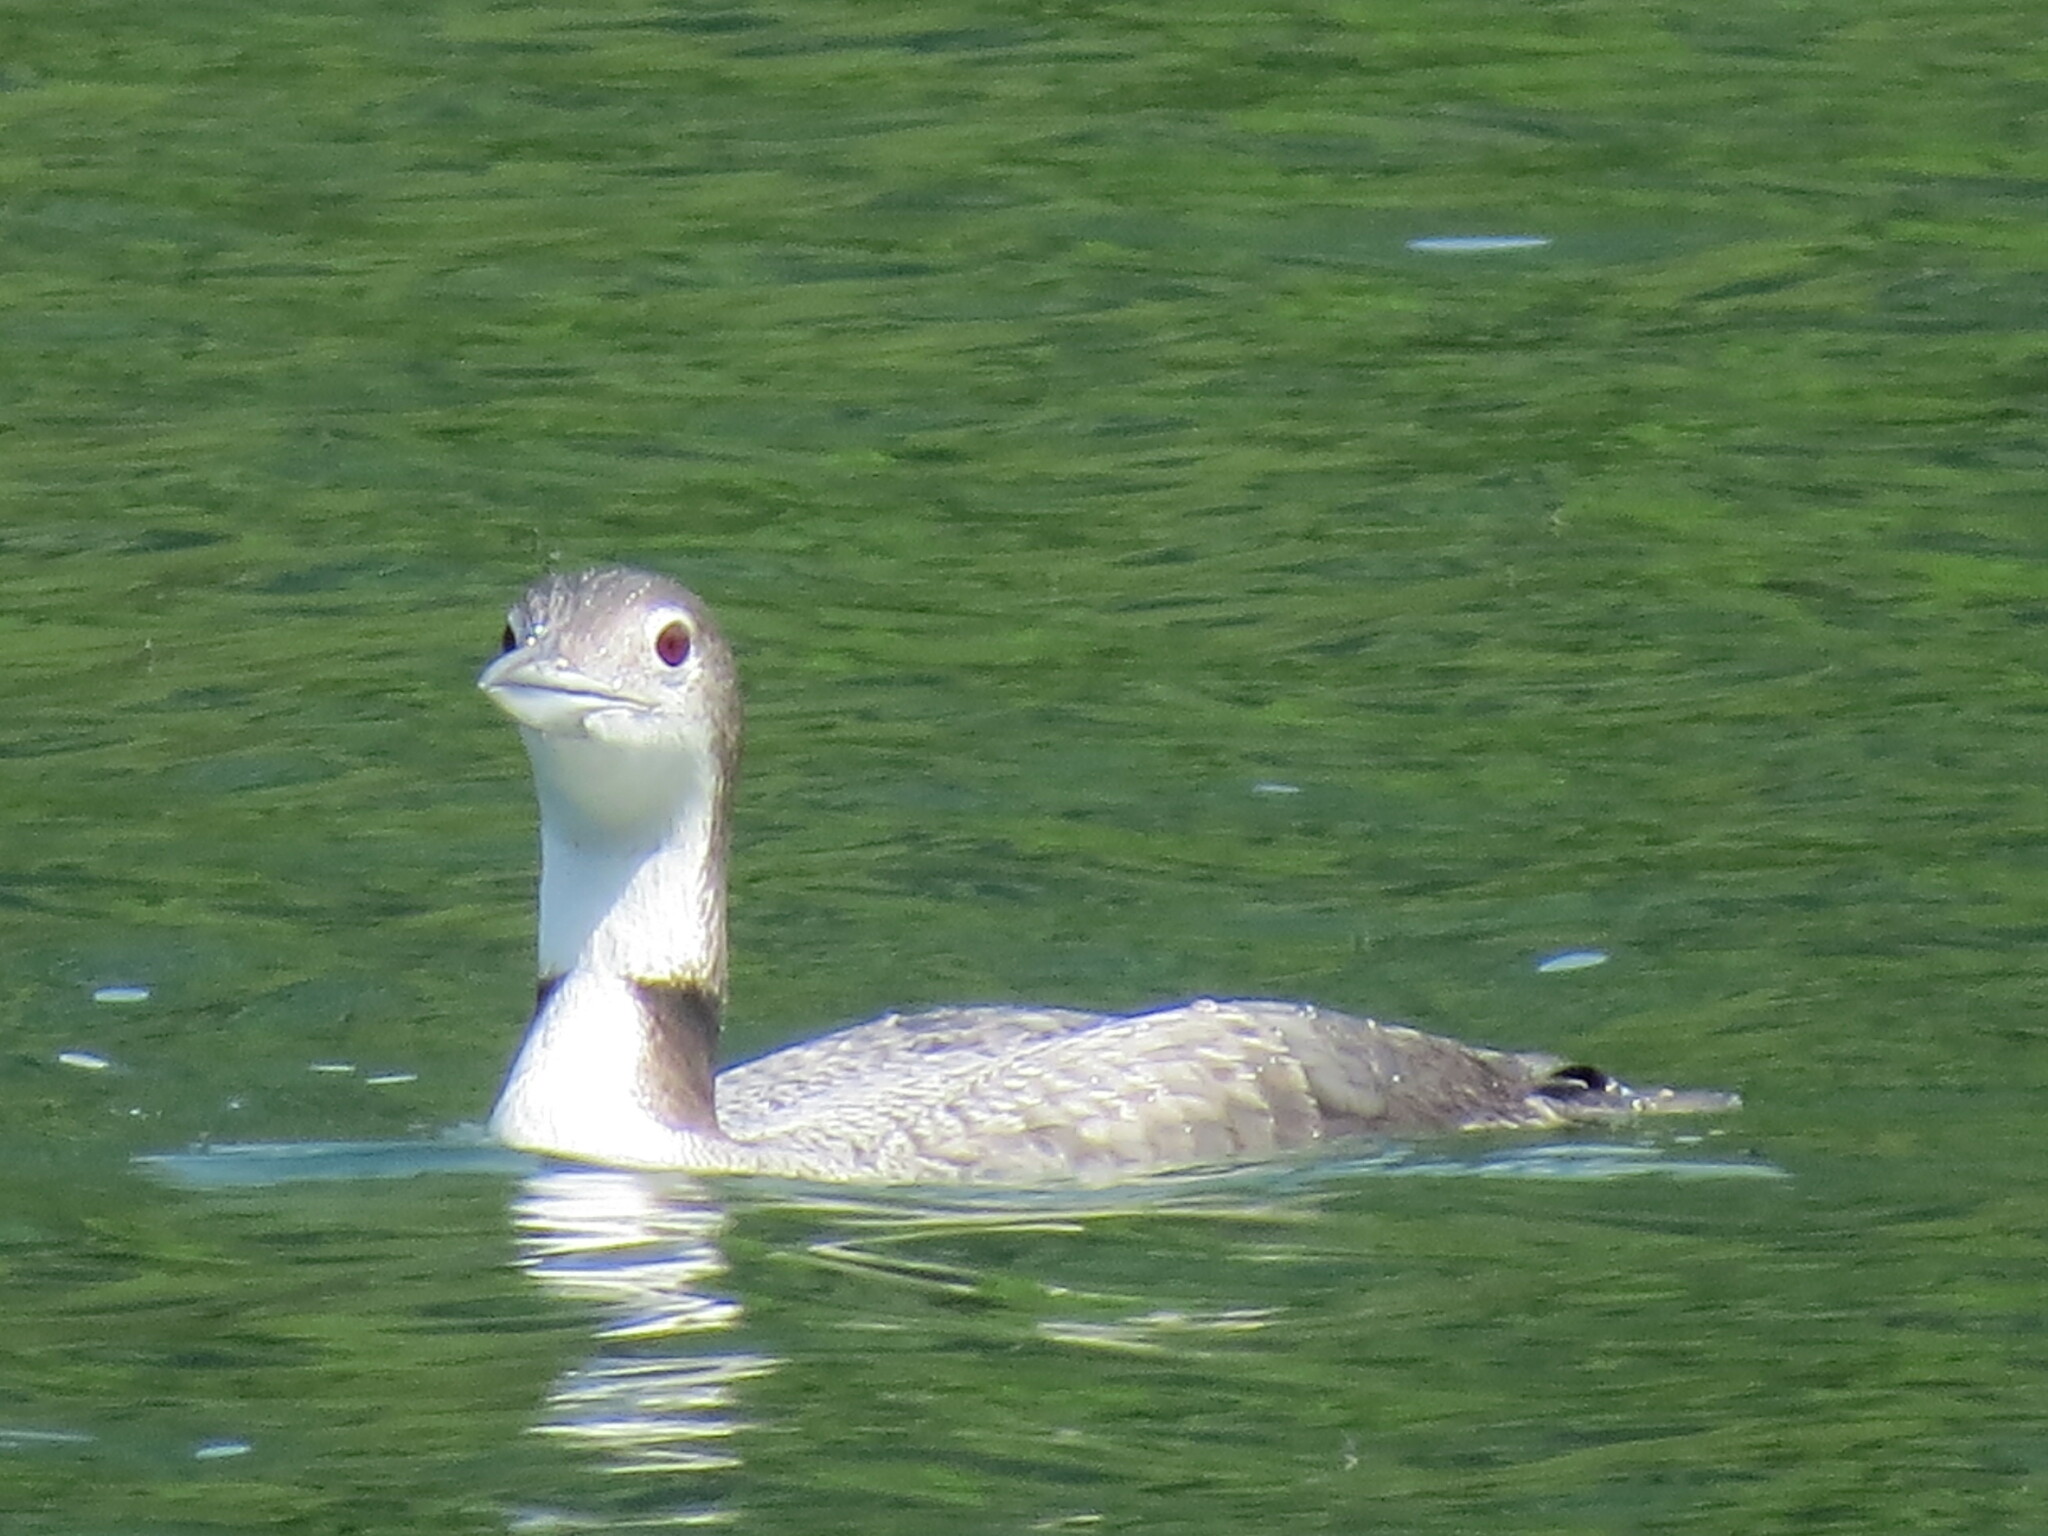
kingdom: Animalia
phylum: Chordata
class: Aves
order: Gaviiformes
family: Gaviidae
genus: Gavia
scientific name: Gavia immer
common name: Common loon
